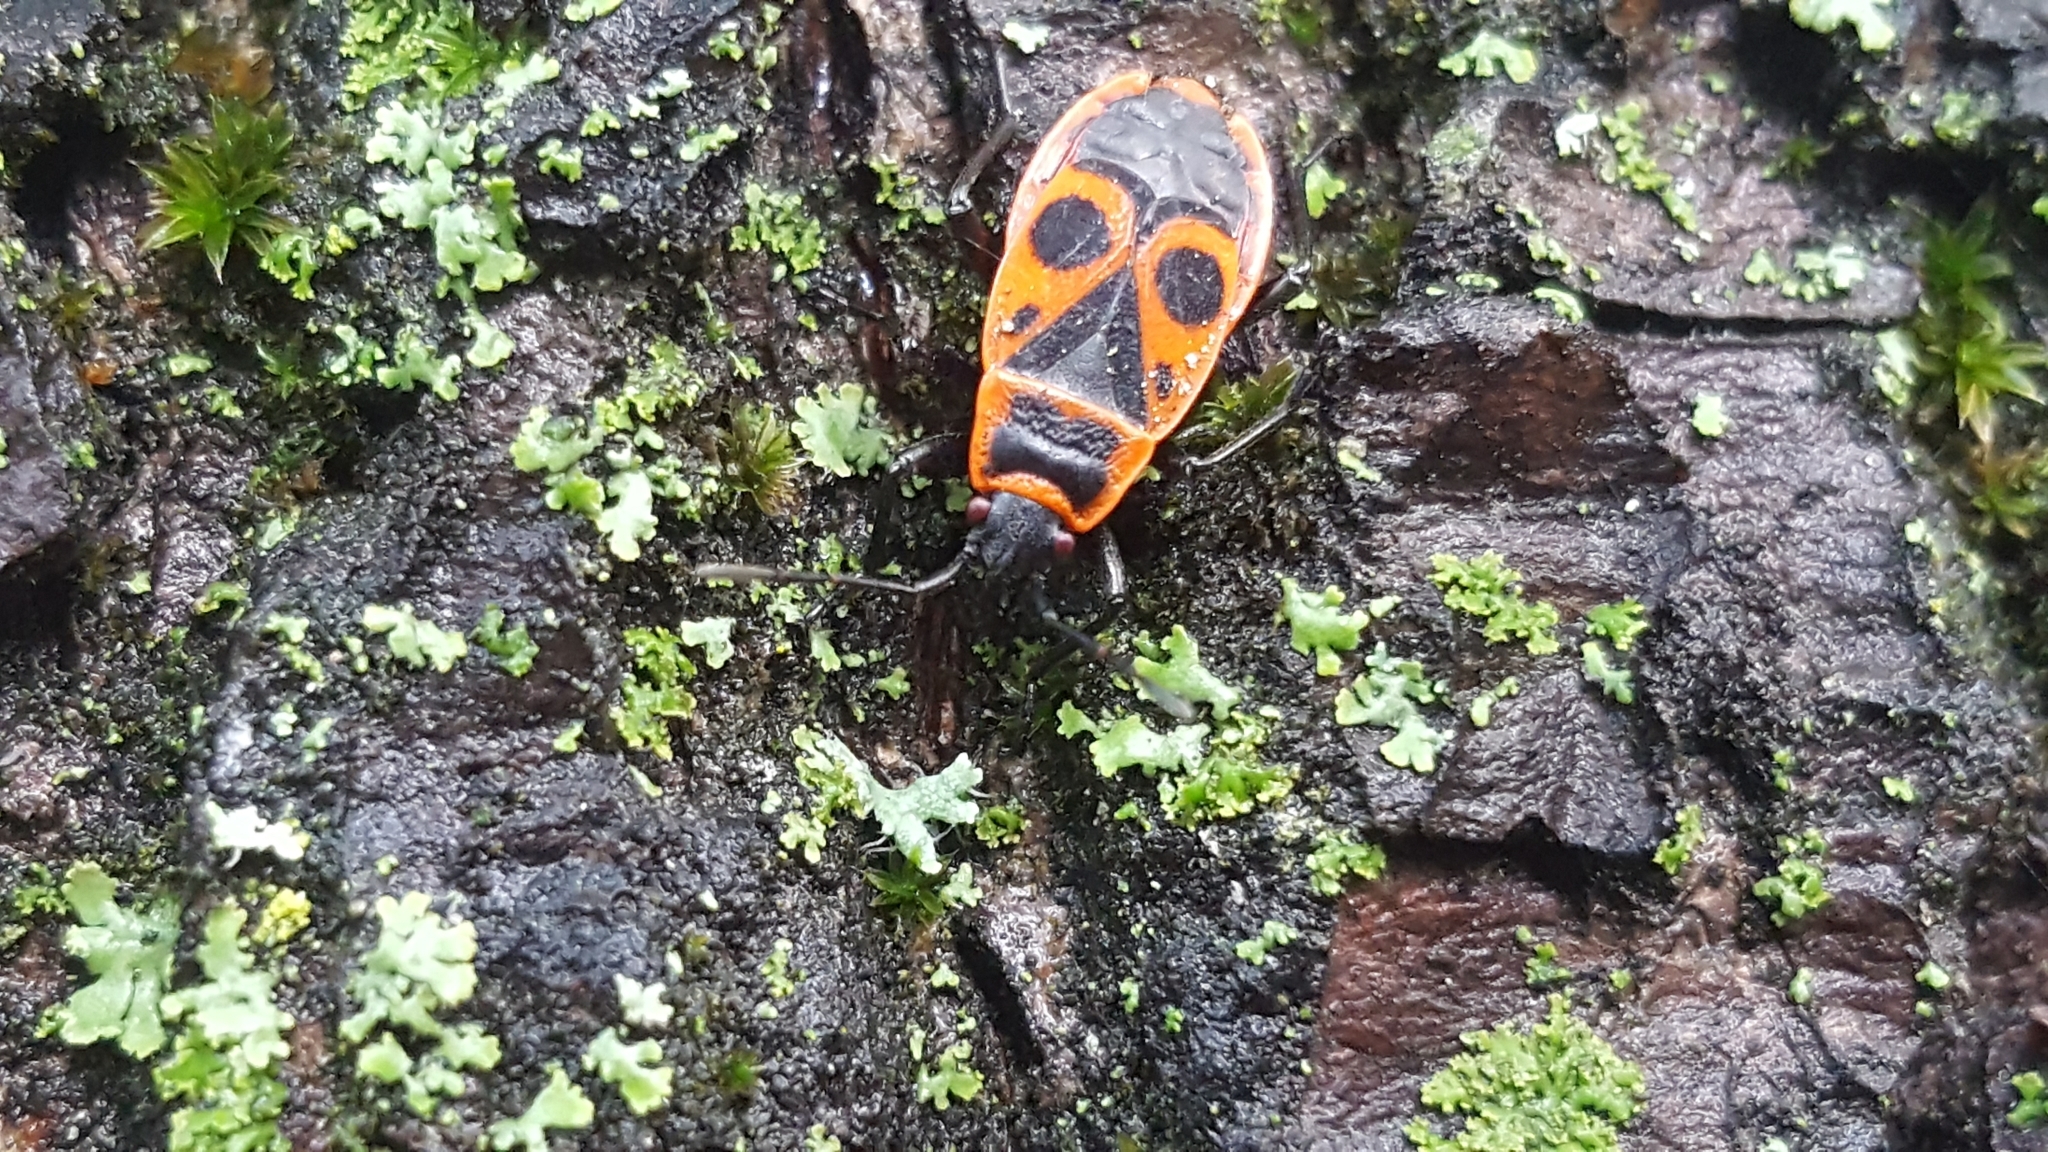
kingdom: Animalia
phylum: Arthropoda
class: Insecta
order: Hemiptera
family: Pyrrhocoridae
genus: Pyrrhocoris
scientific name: Pyrrhocoris apterus
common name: Firebug
